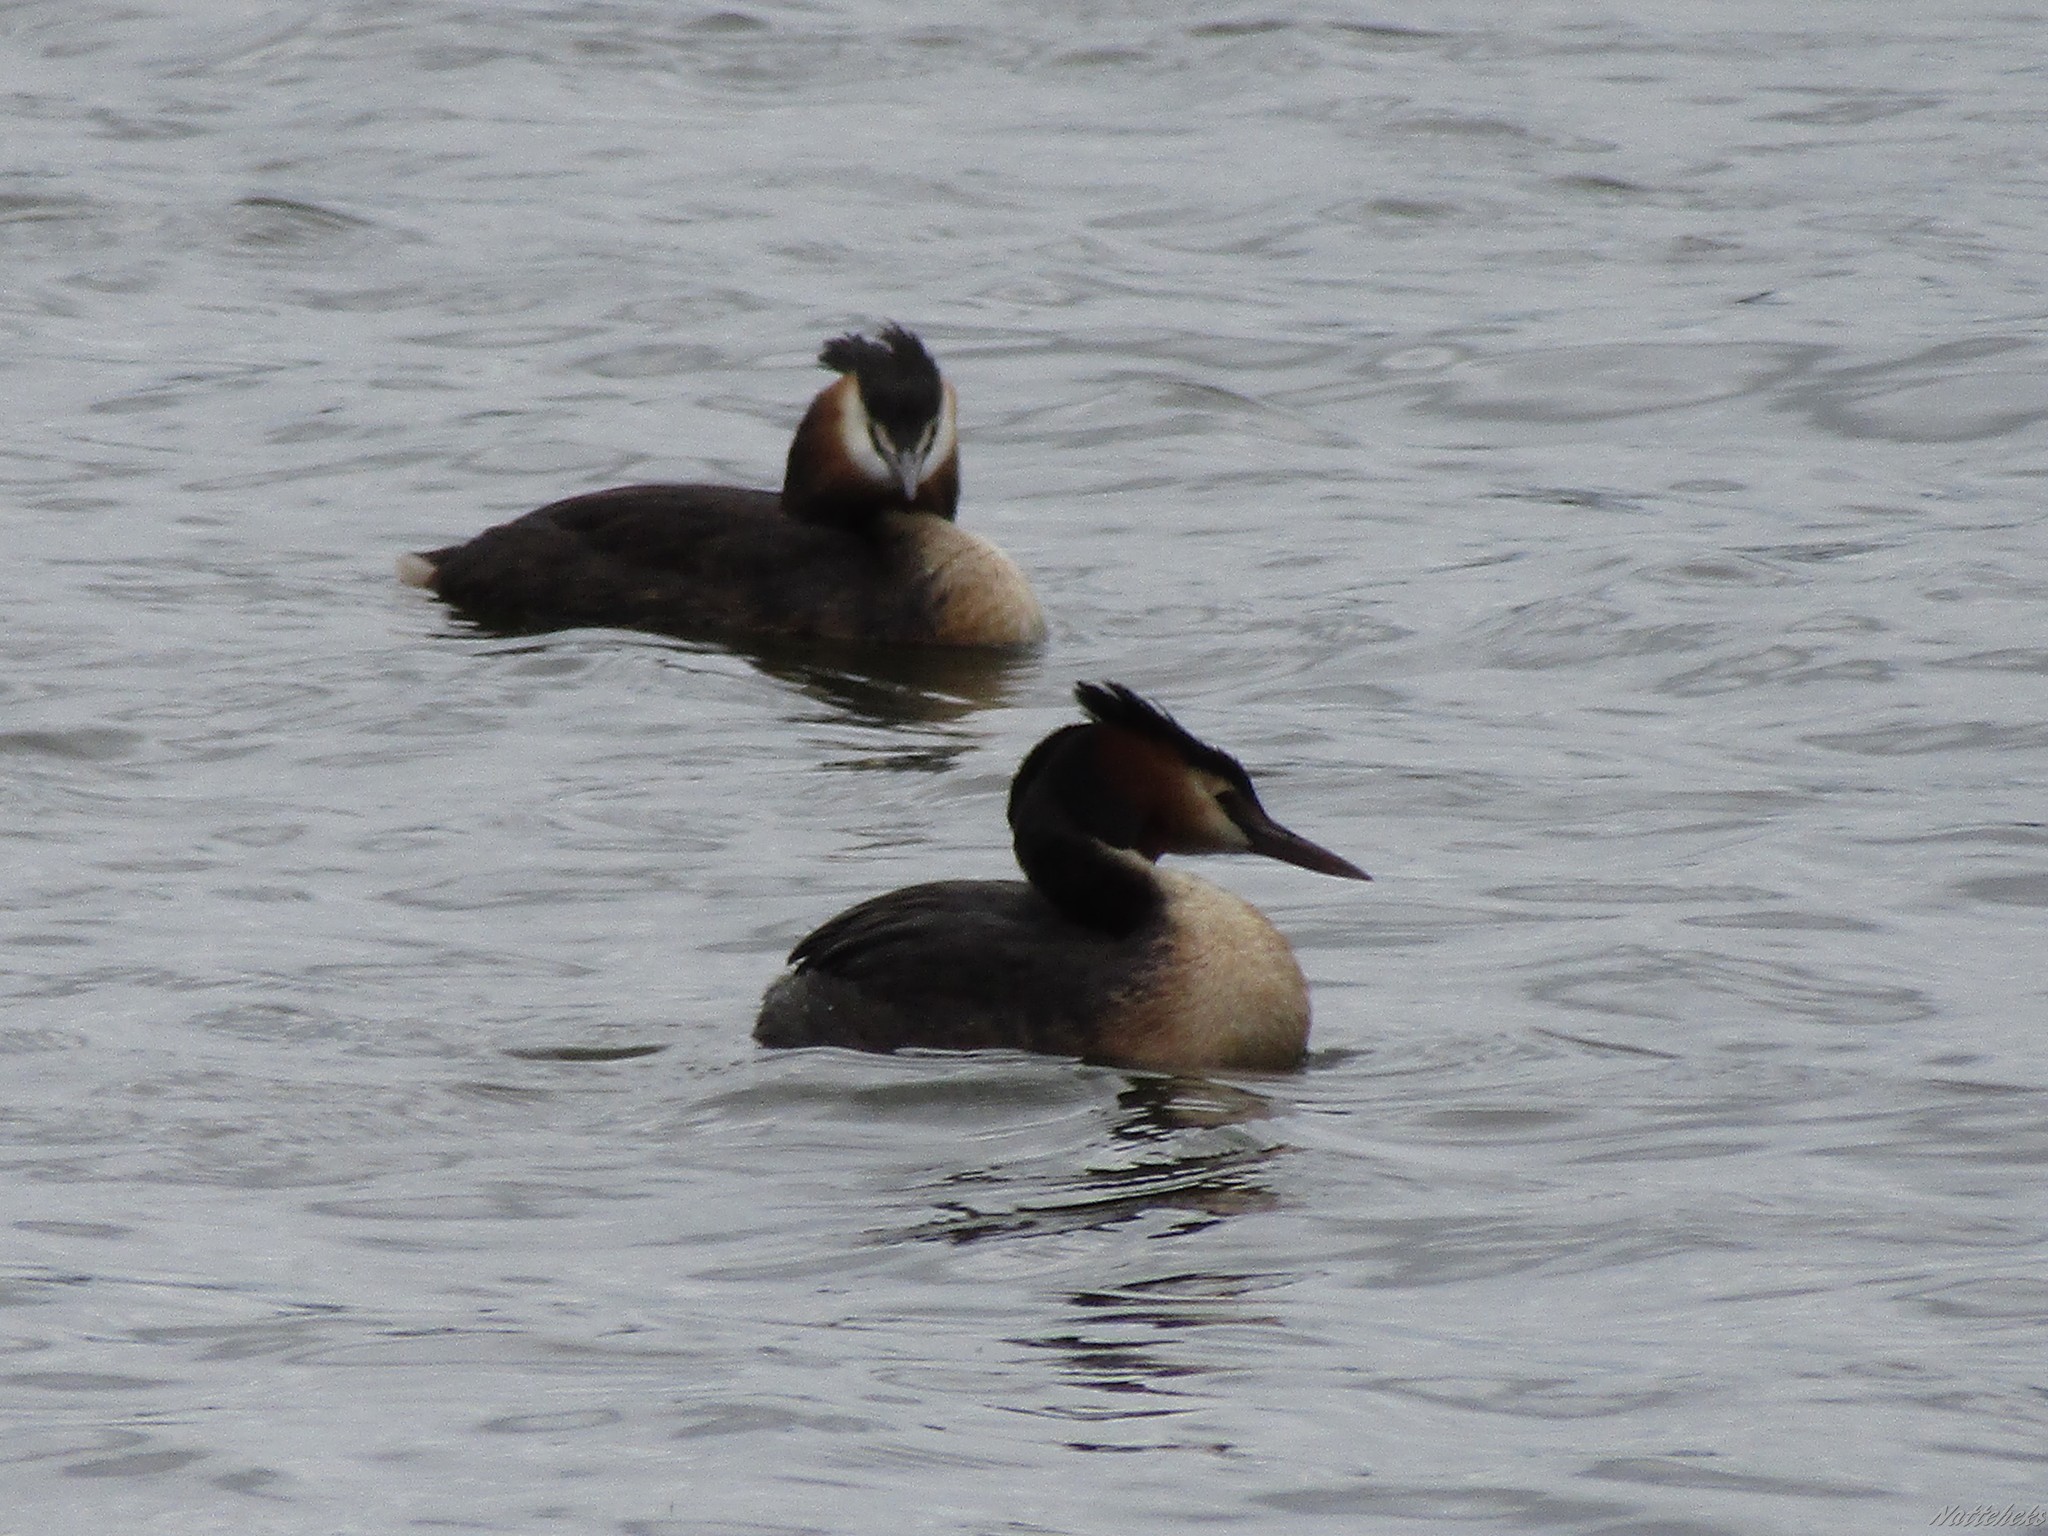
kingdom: Animalia
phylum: Chordata
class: Aves
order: Podicipediformes
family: Podicipedidae
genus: Podiceps
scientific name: Podiceps cristatus
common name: Great crested grebe
